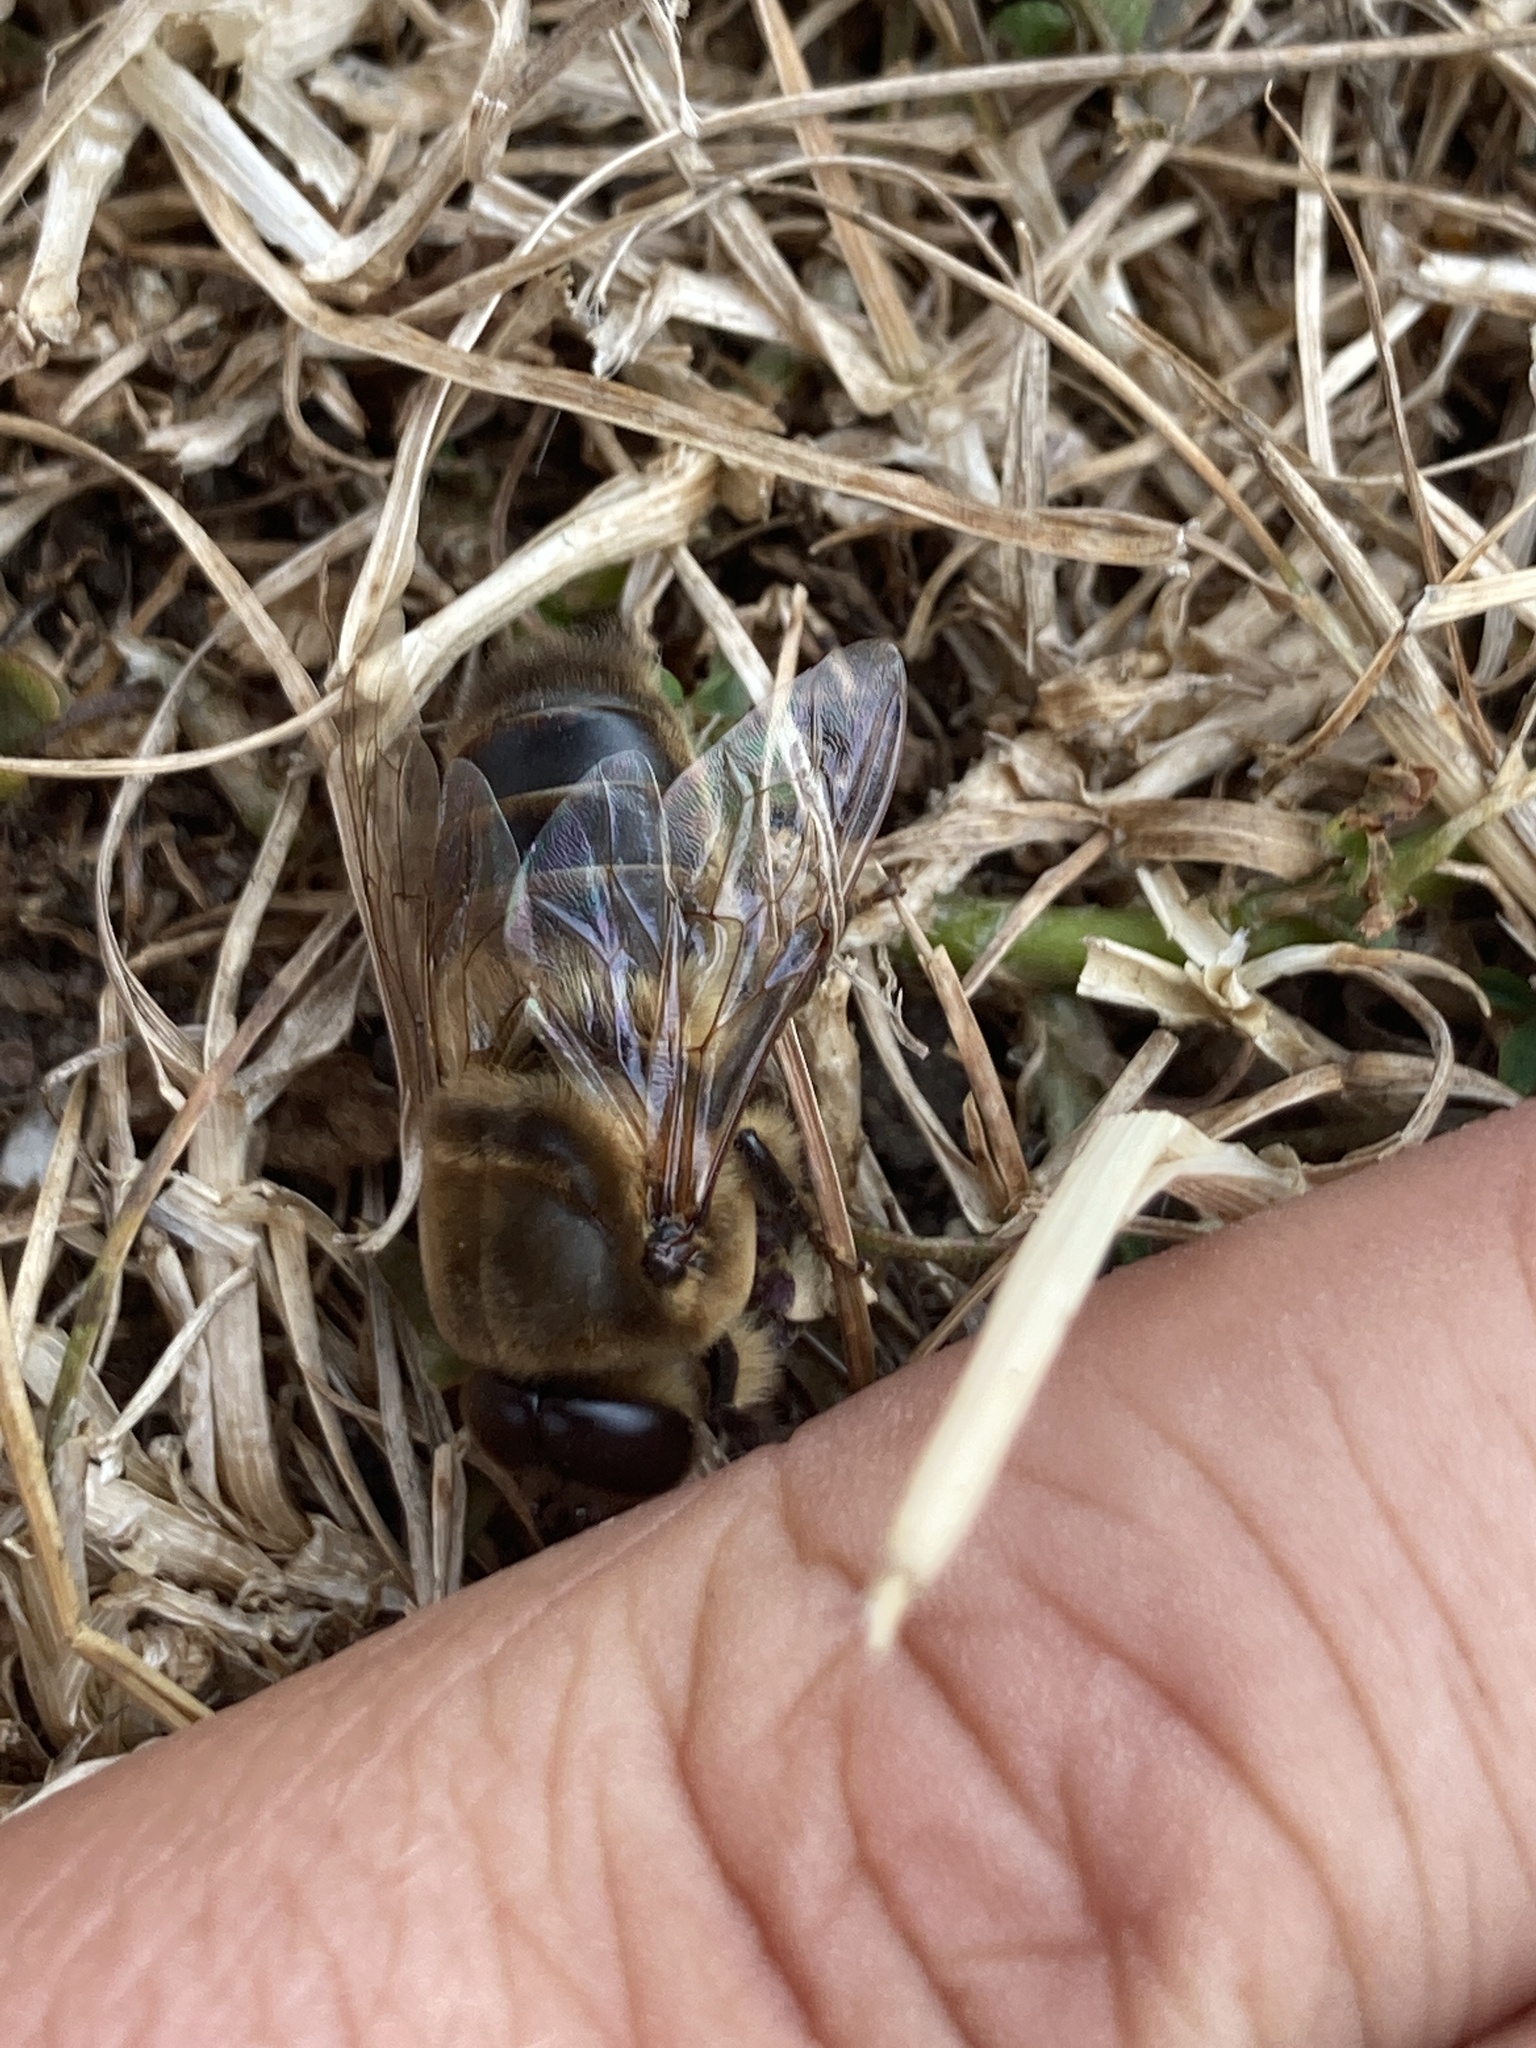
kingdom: Animalia
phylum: Arthropoda
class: Insecta
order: Hymenoptera
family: Apidae
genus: Apis
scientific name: Apis mellifera
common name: Honey bee
